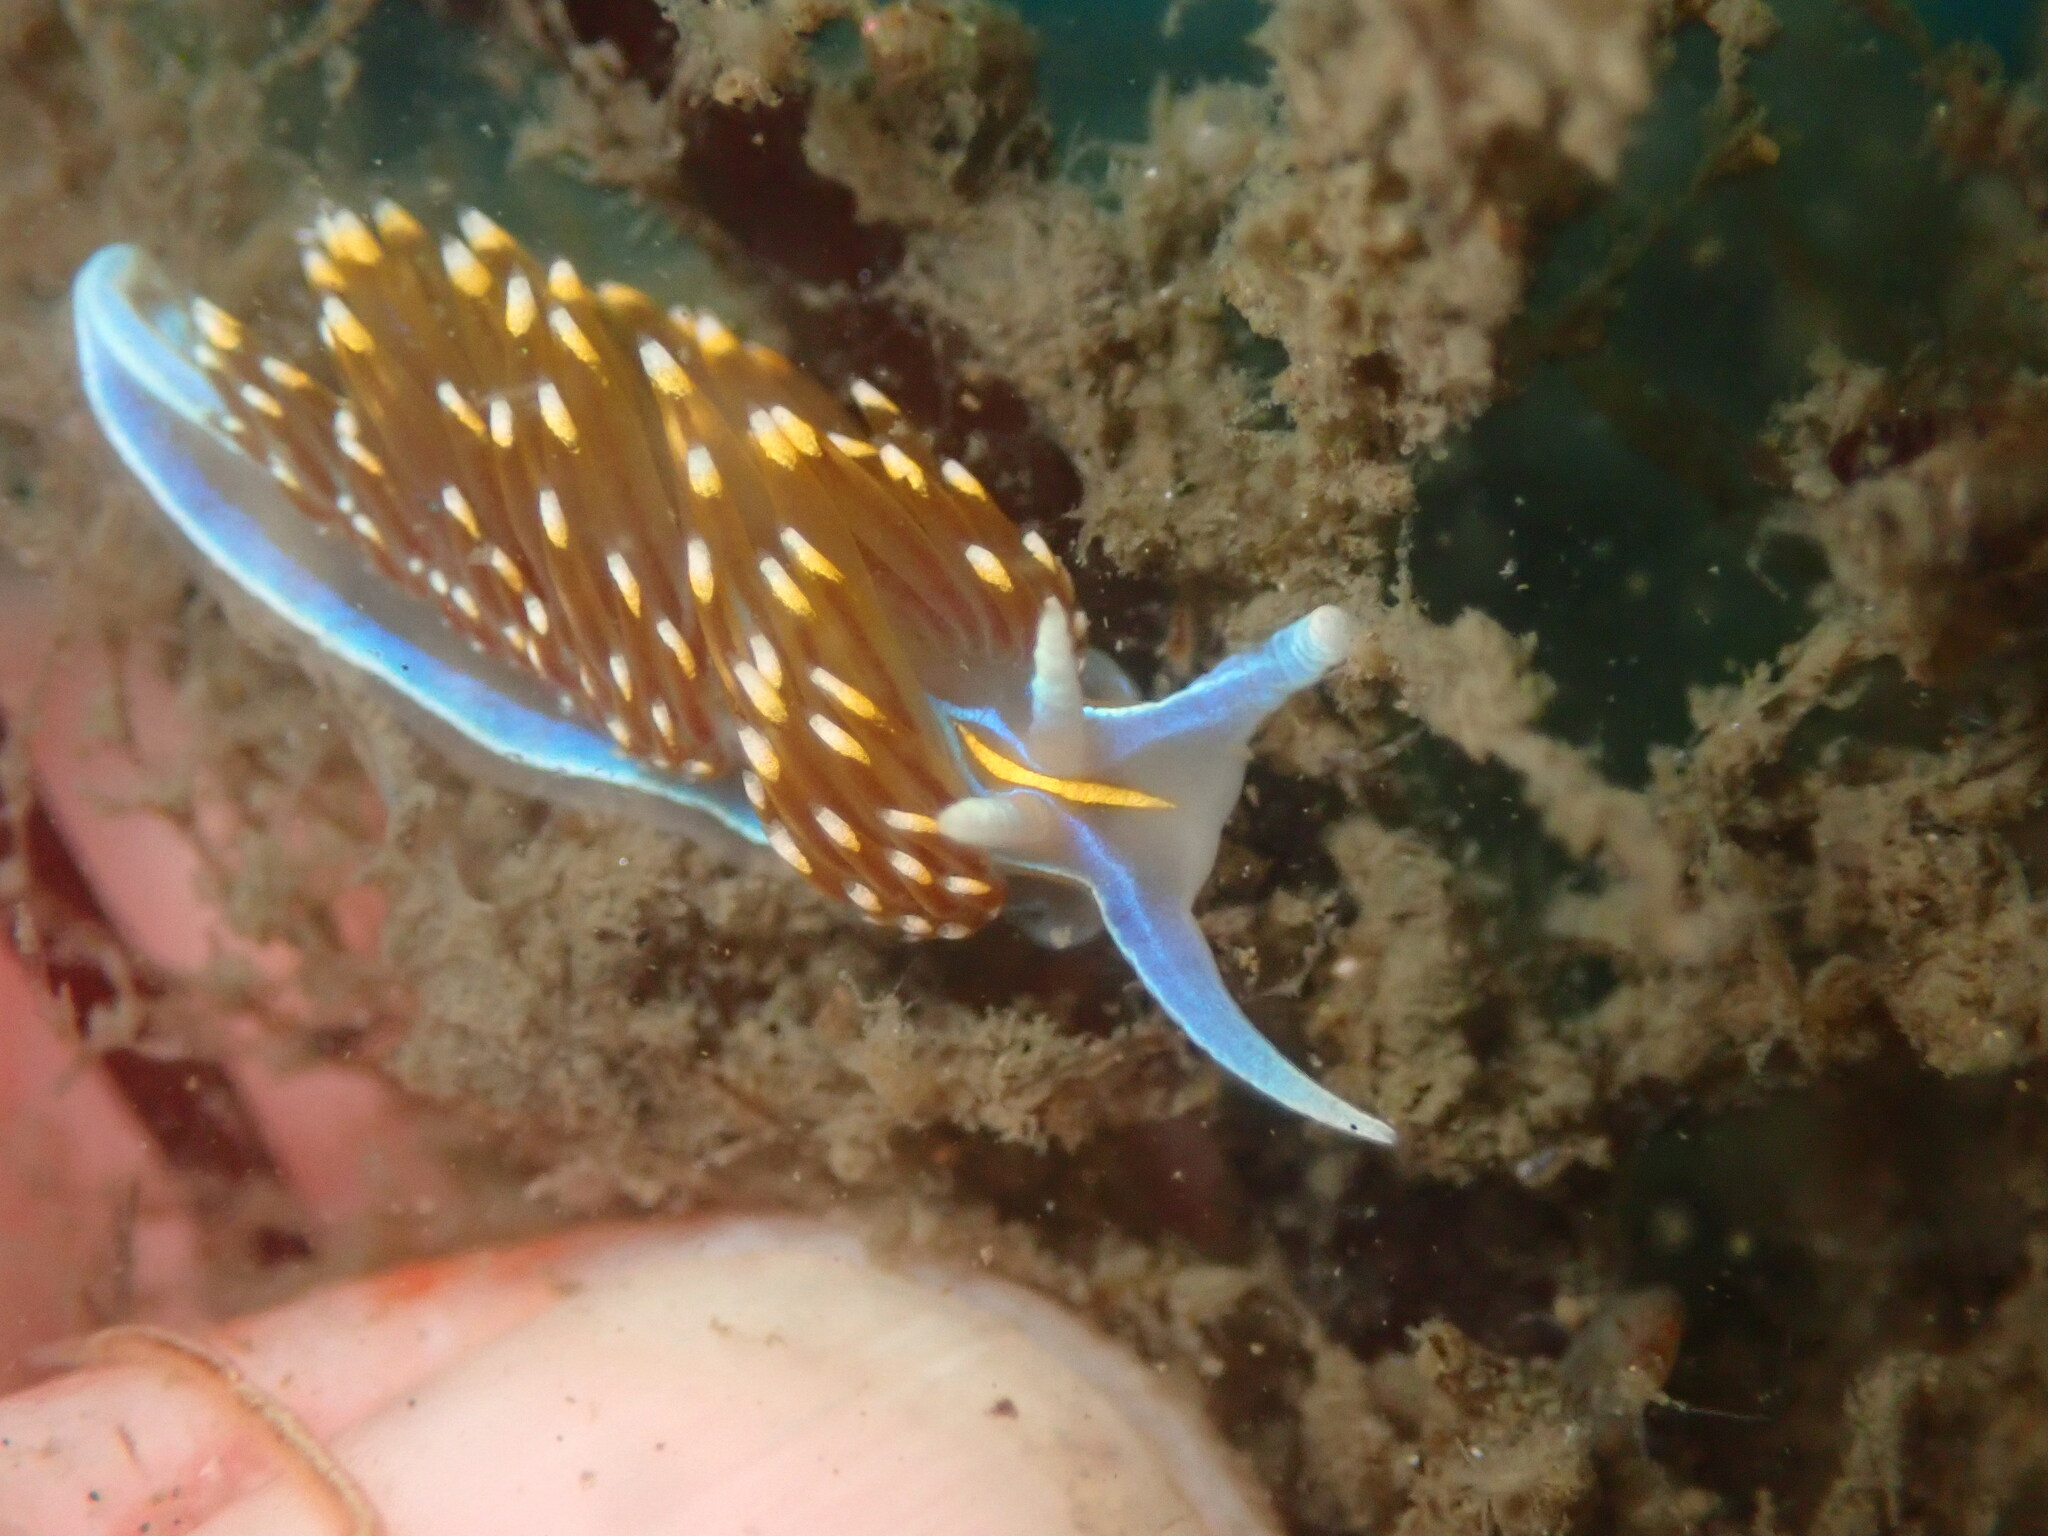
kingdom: Animalia
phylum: Mollusca
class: Gastropoda
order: Nudibranchia
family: Myrrhinidae
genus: Hermissenda
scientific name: Hermissenda opalescens
